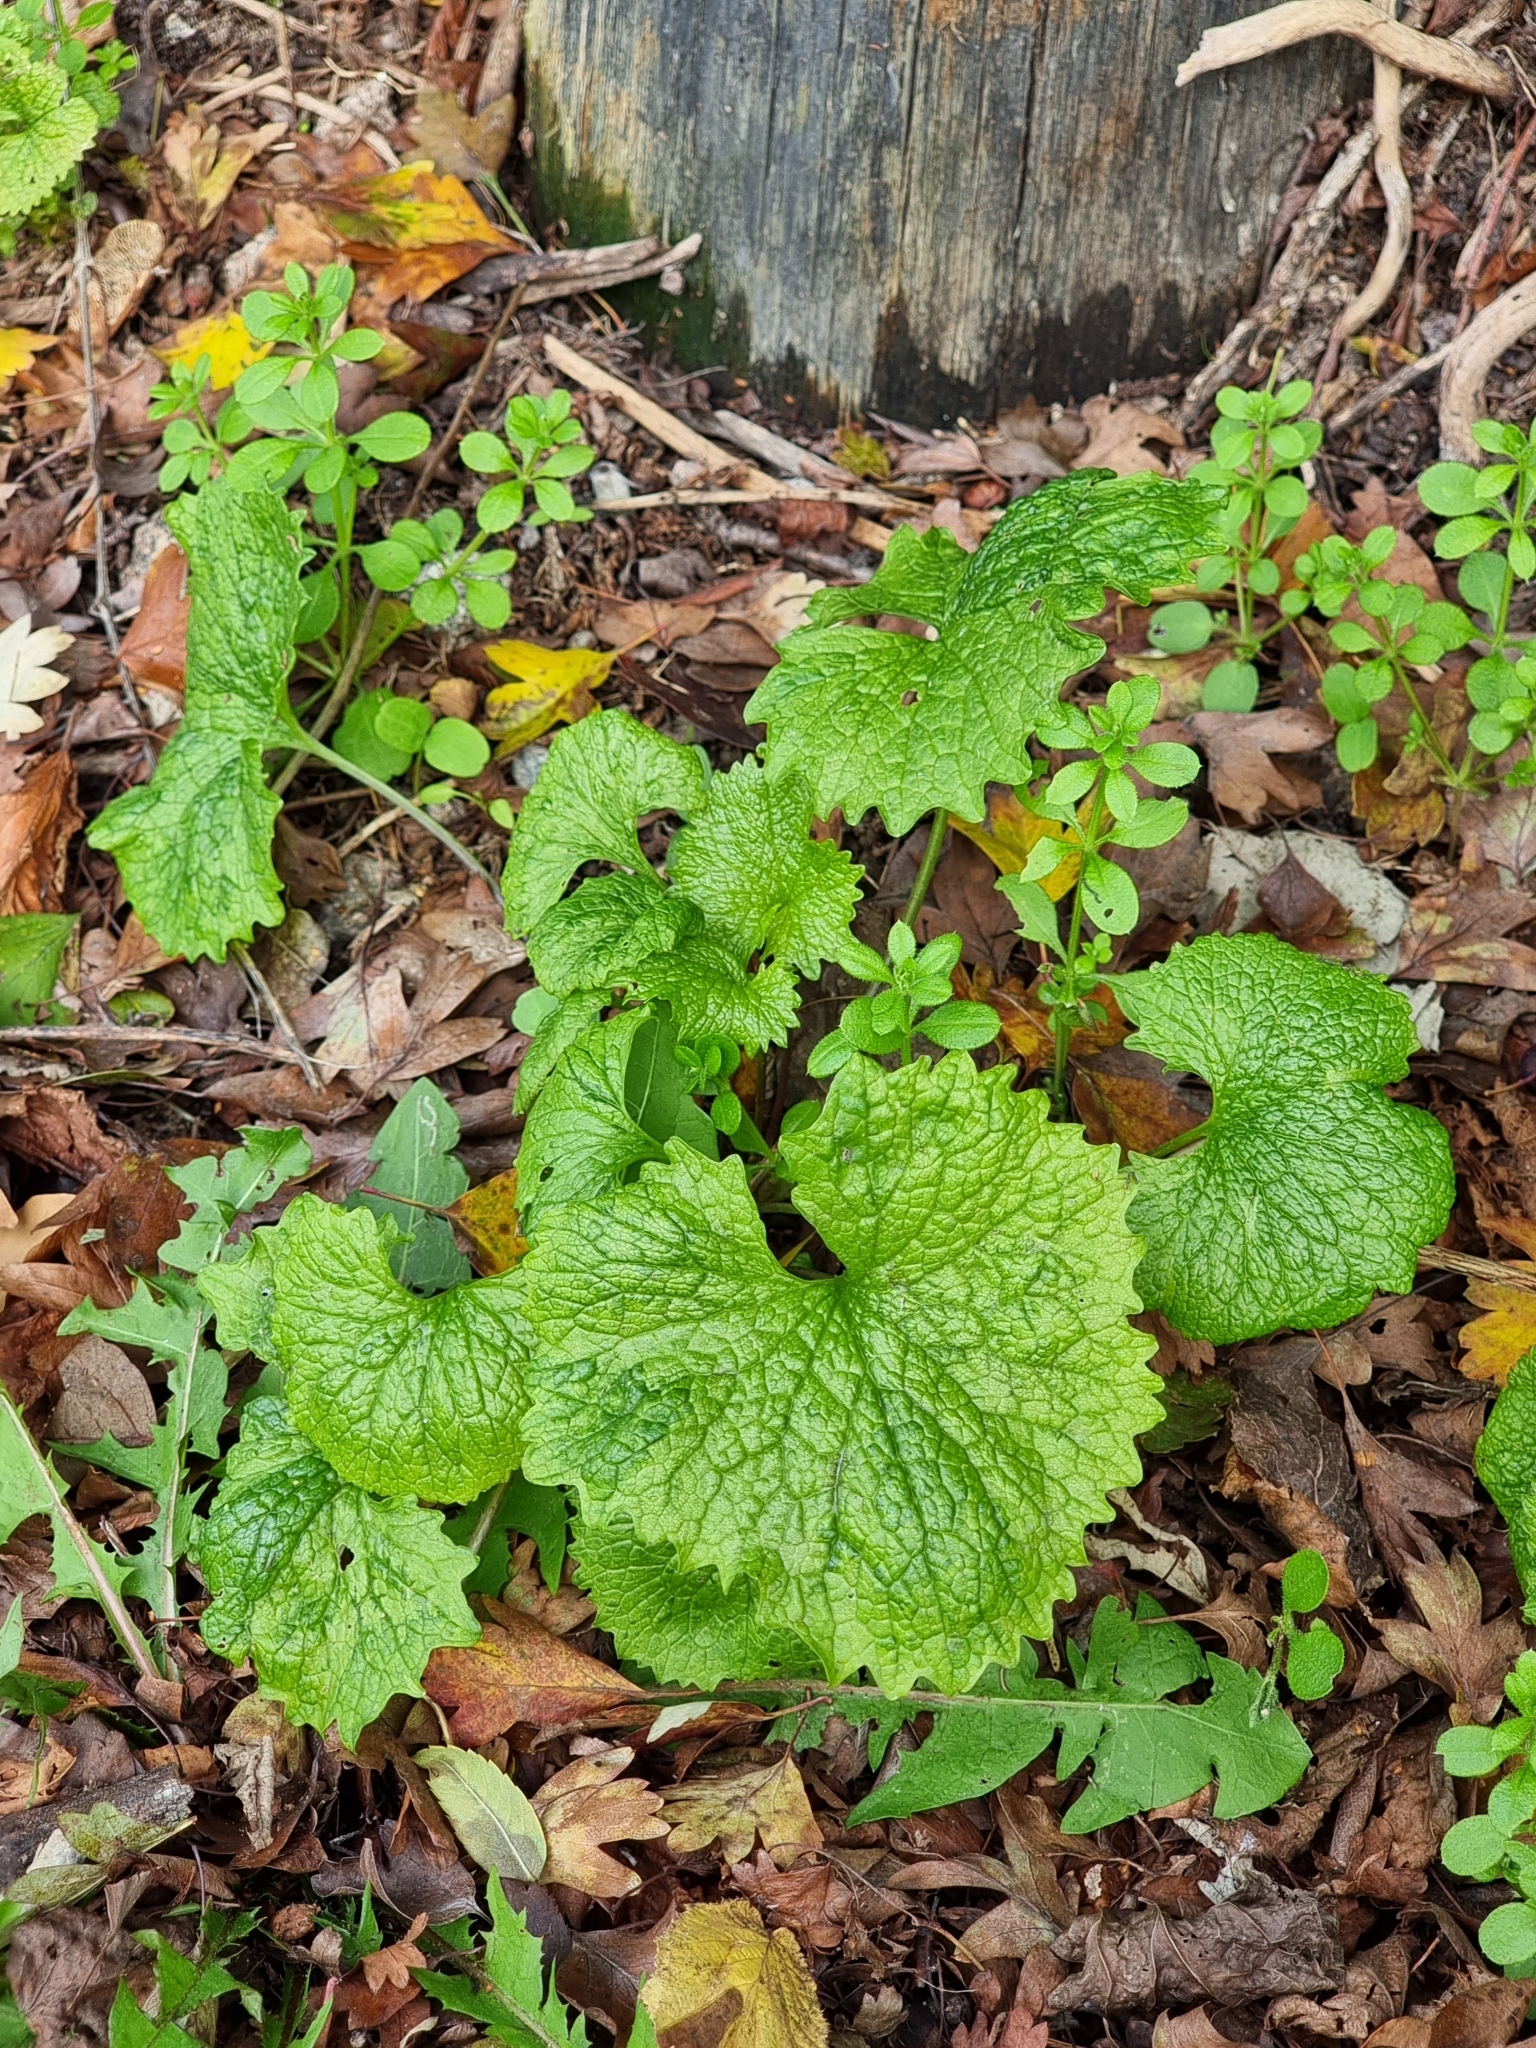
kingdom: Plantae
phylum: Tracheophyta
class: Magnoliopsida
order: Brassicales
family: Brassicaceae
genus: Alliaria
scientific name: Alliaria petiolata
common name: Garlic mustard
